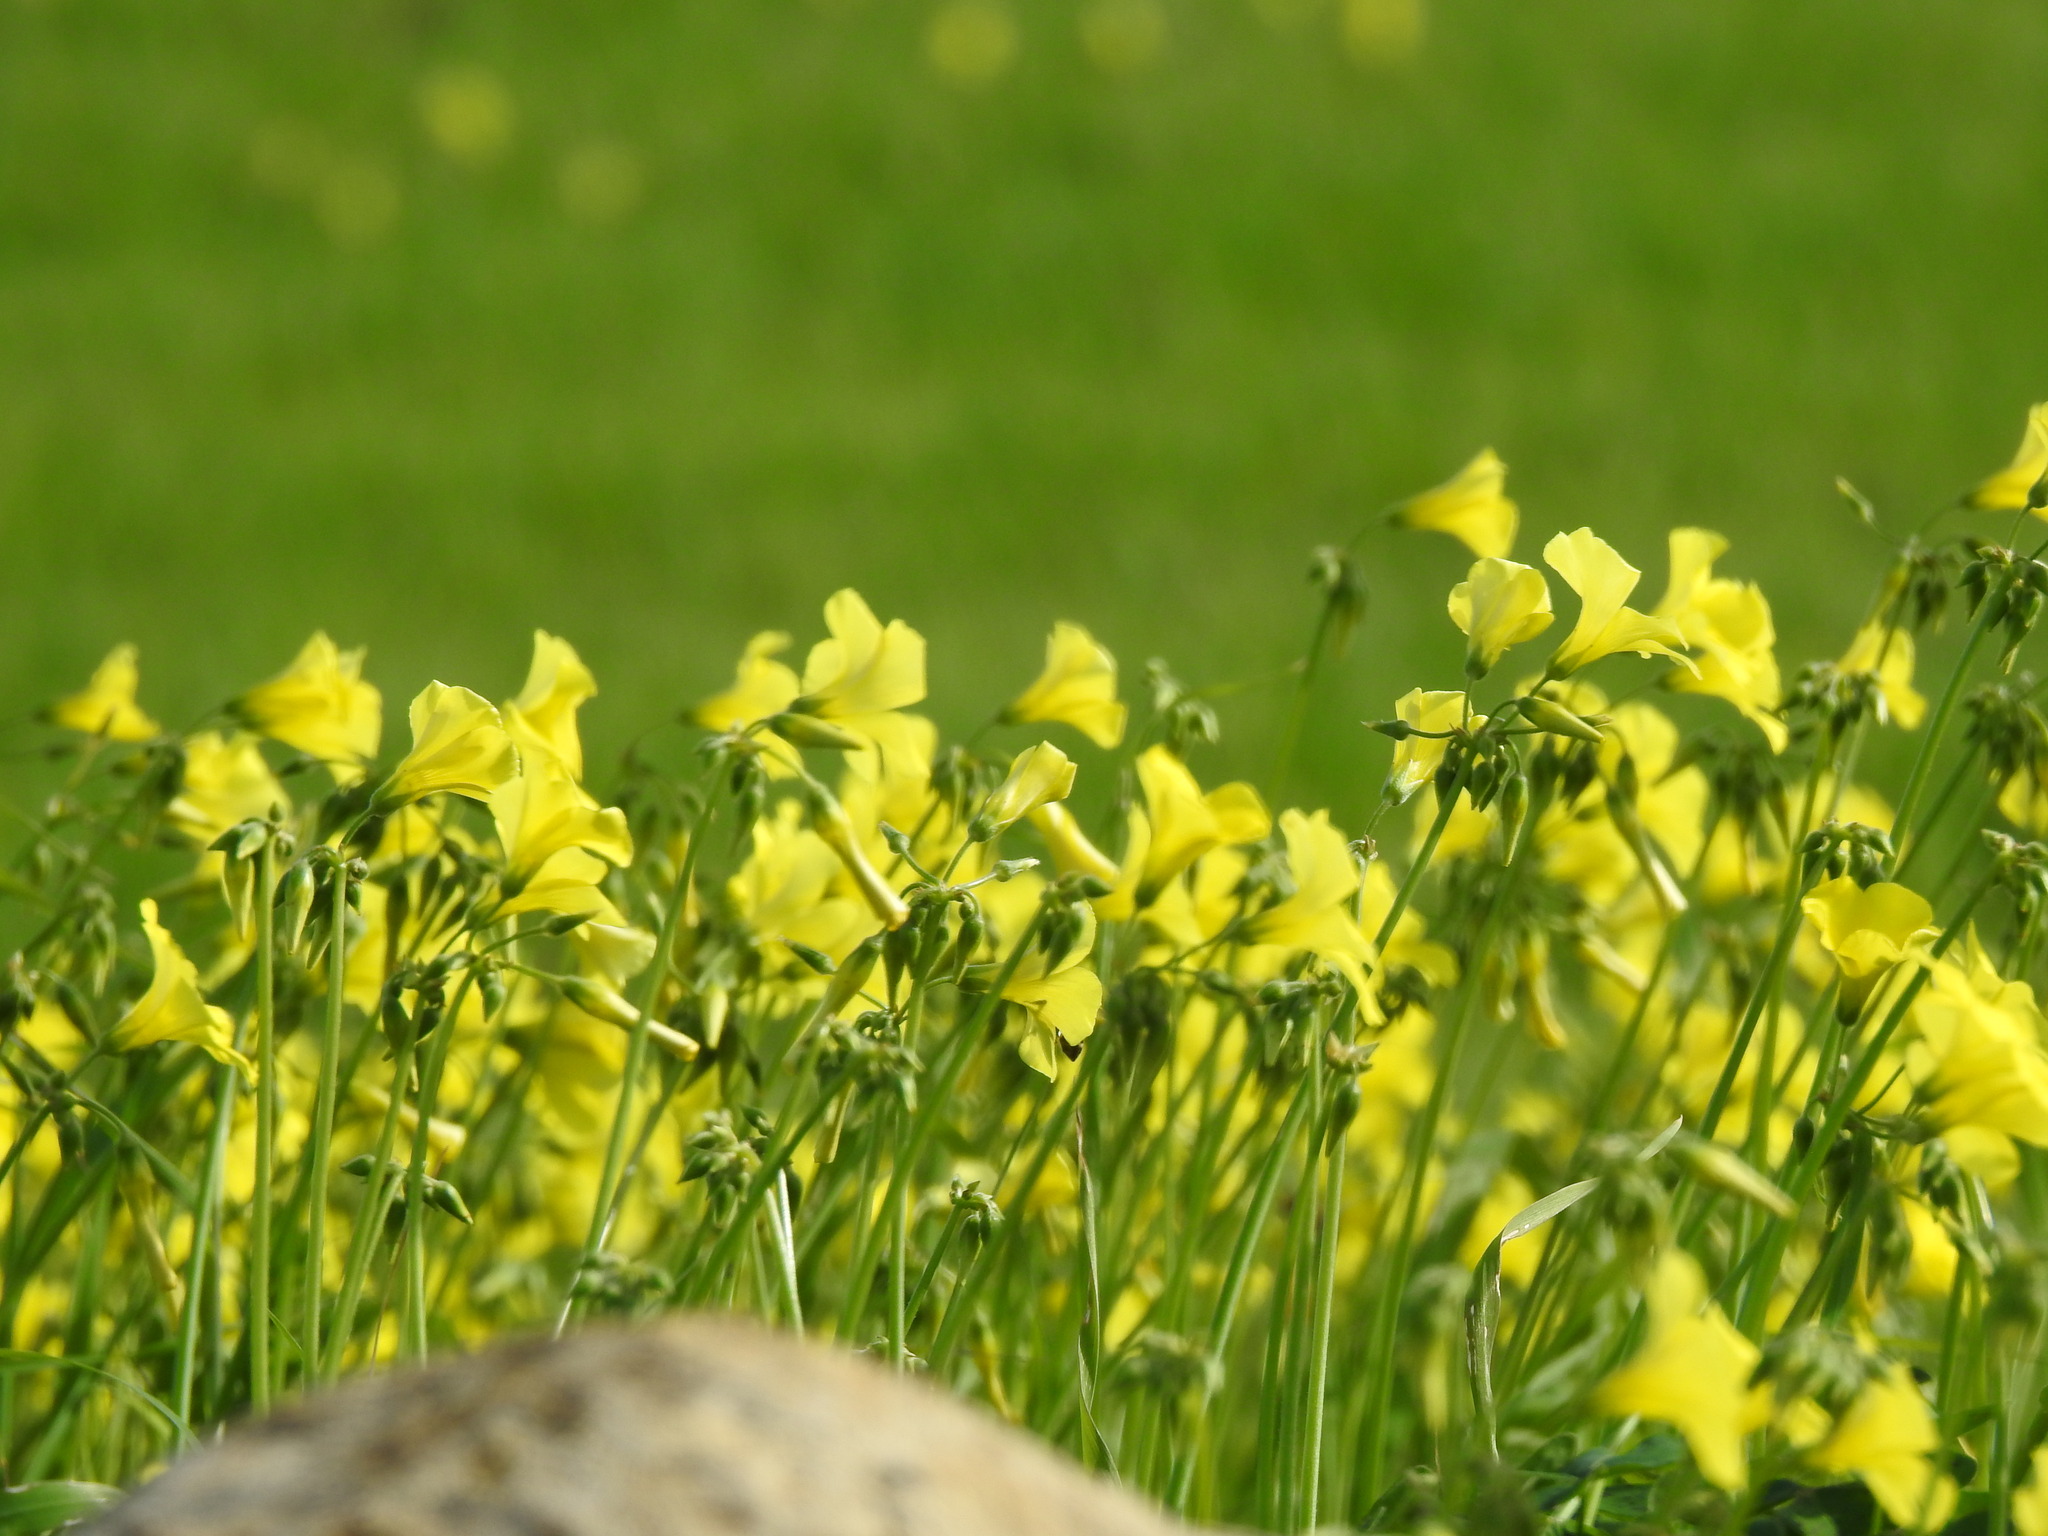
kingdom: Plantae
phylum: Tracheophyta
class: Magnoliopsida
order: Oxalidales
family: Oxalidaceae
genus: Oxalis
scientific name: Oxalis pes-caprae
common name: Bermuda-buttercup
